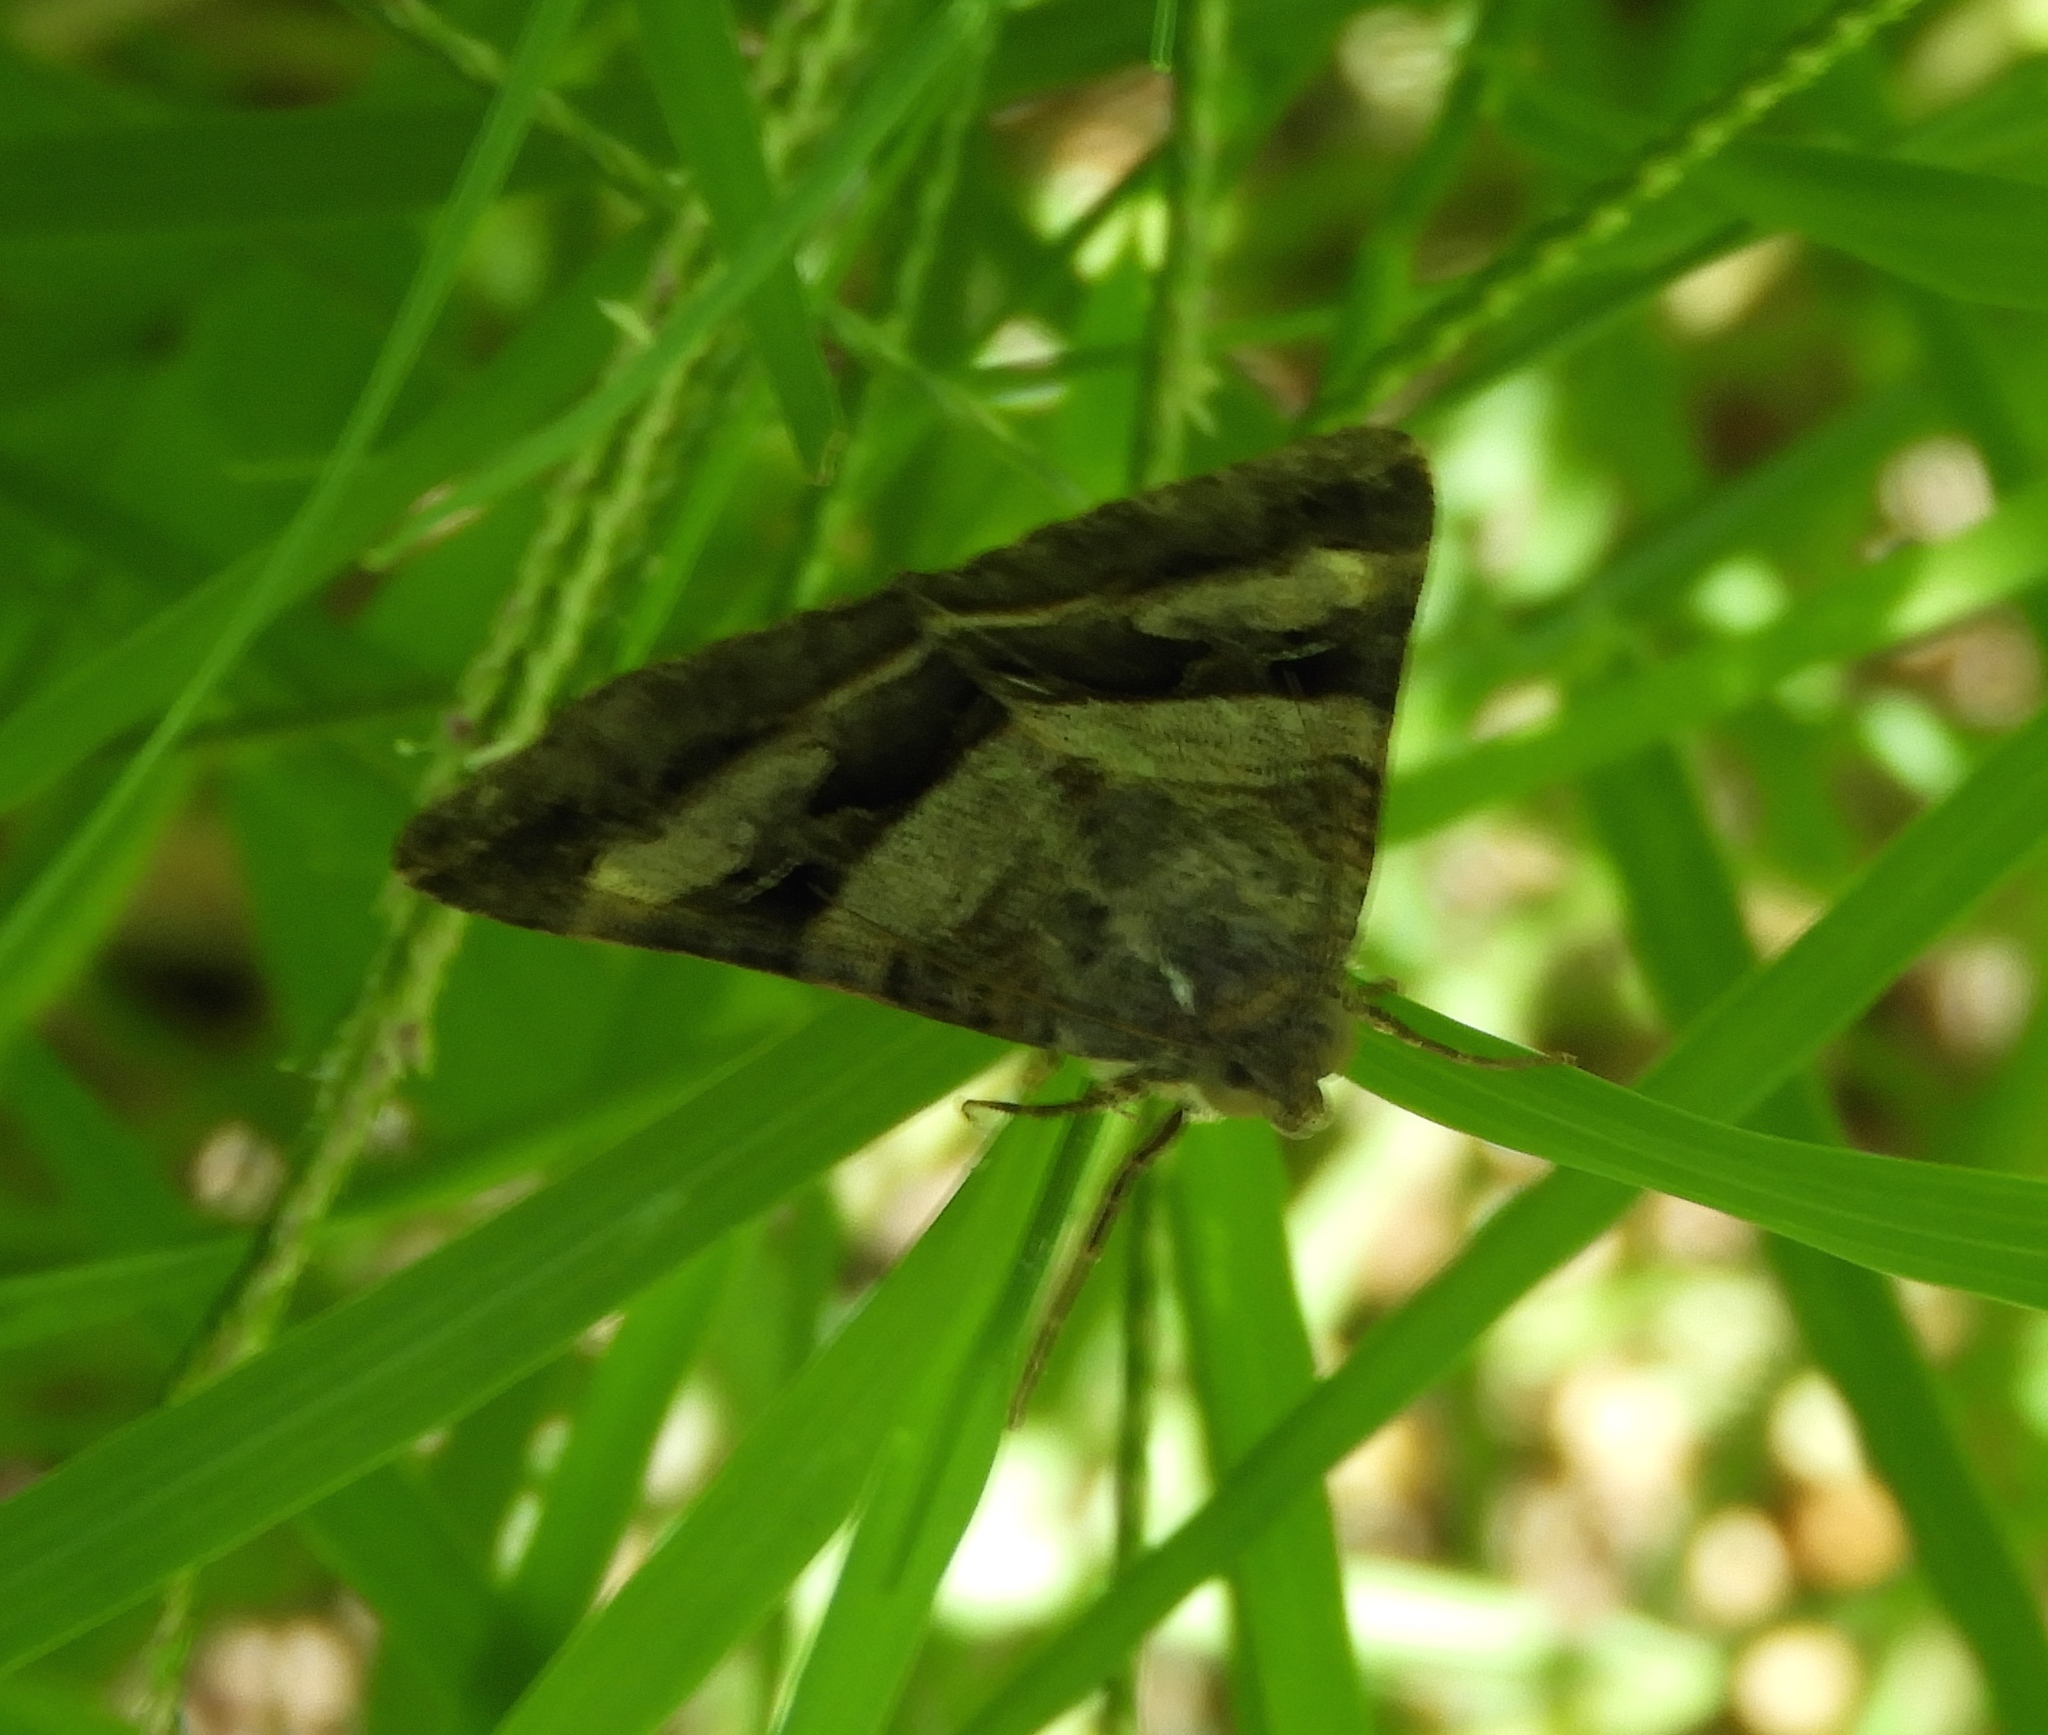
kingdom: Animalia
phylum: Arthropoda
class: Insecta
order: Lepidoptera
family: Erebidae
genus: Melipotis
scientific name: Melipotis
